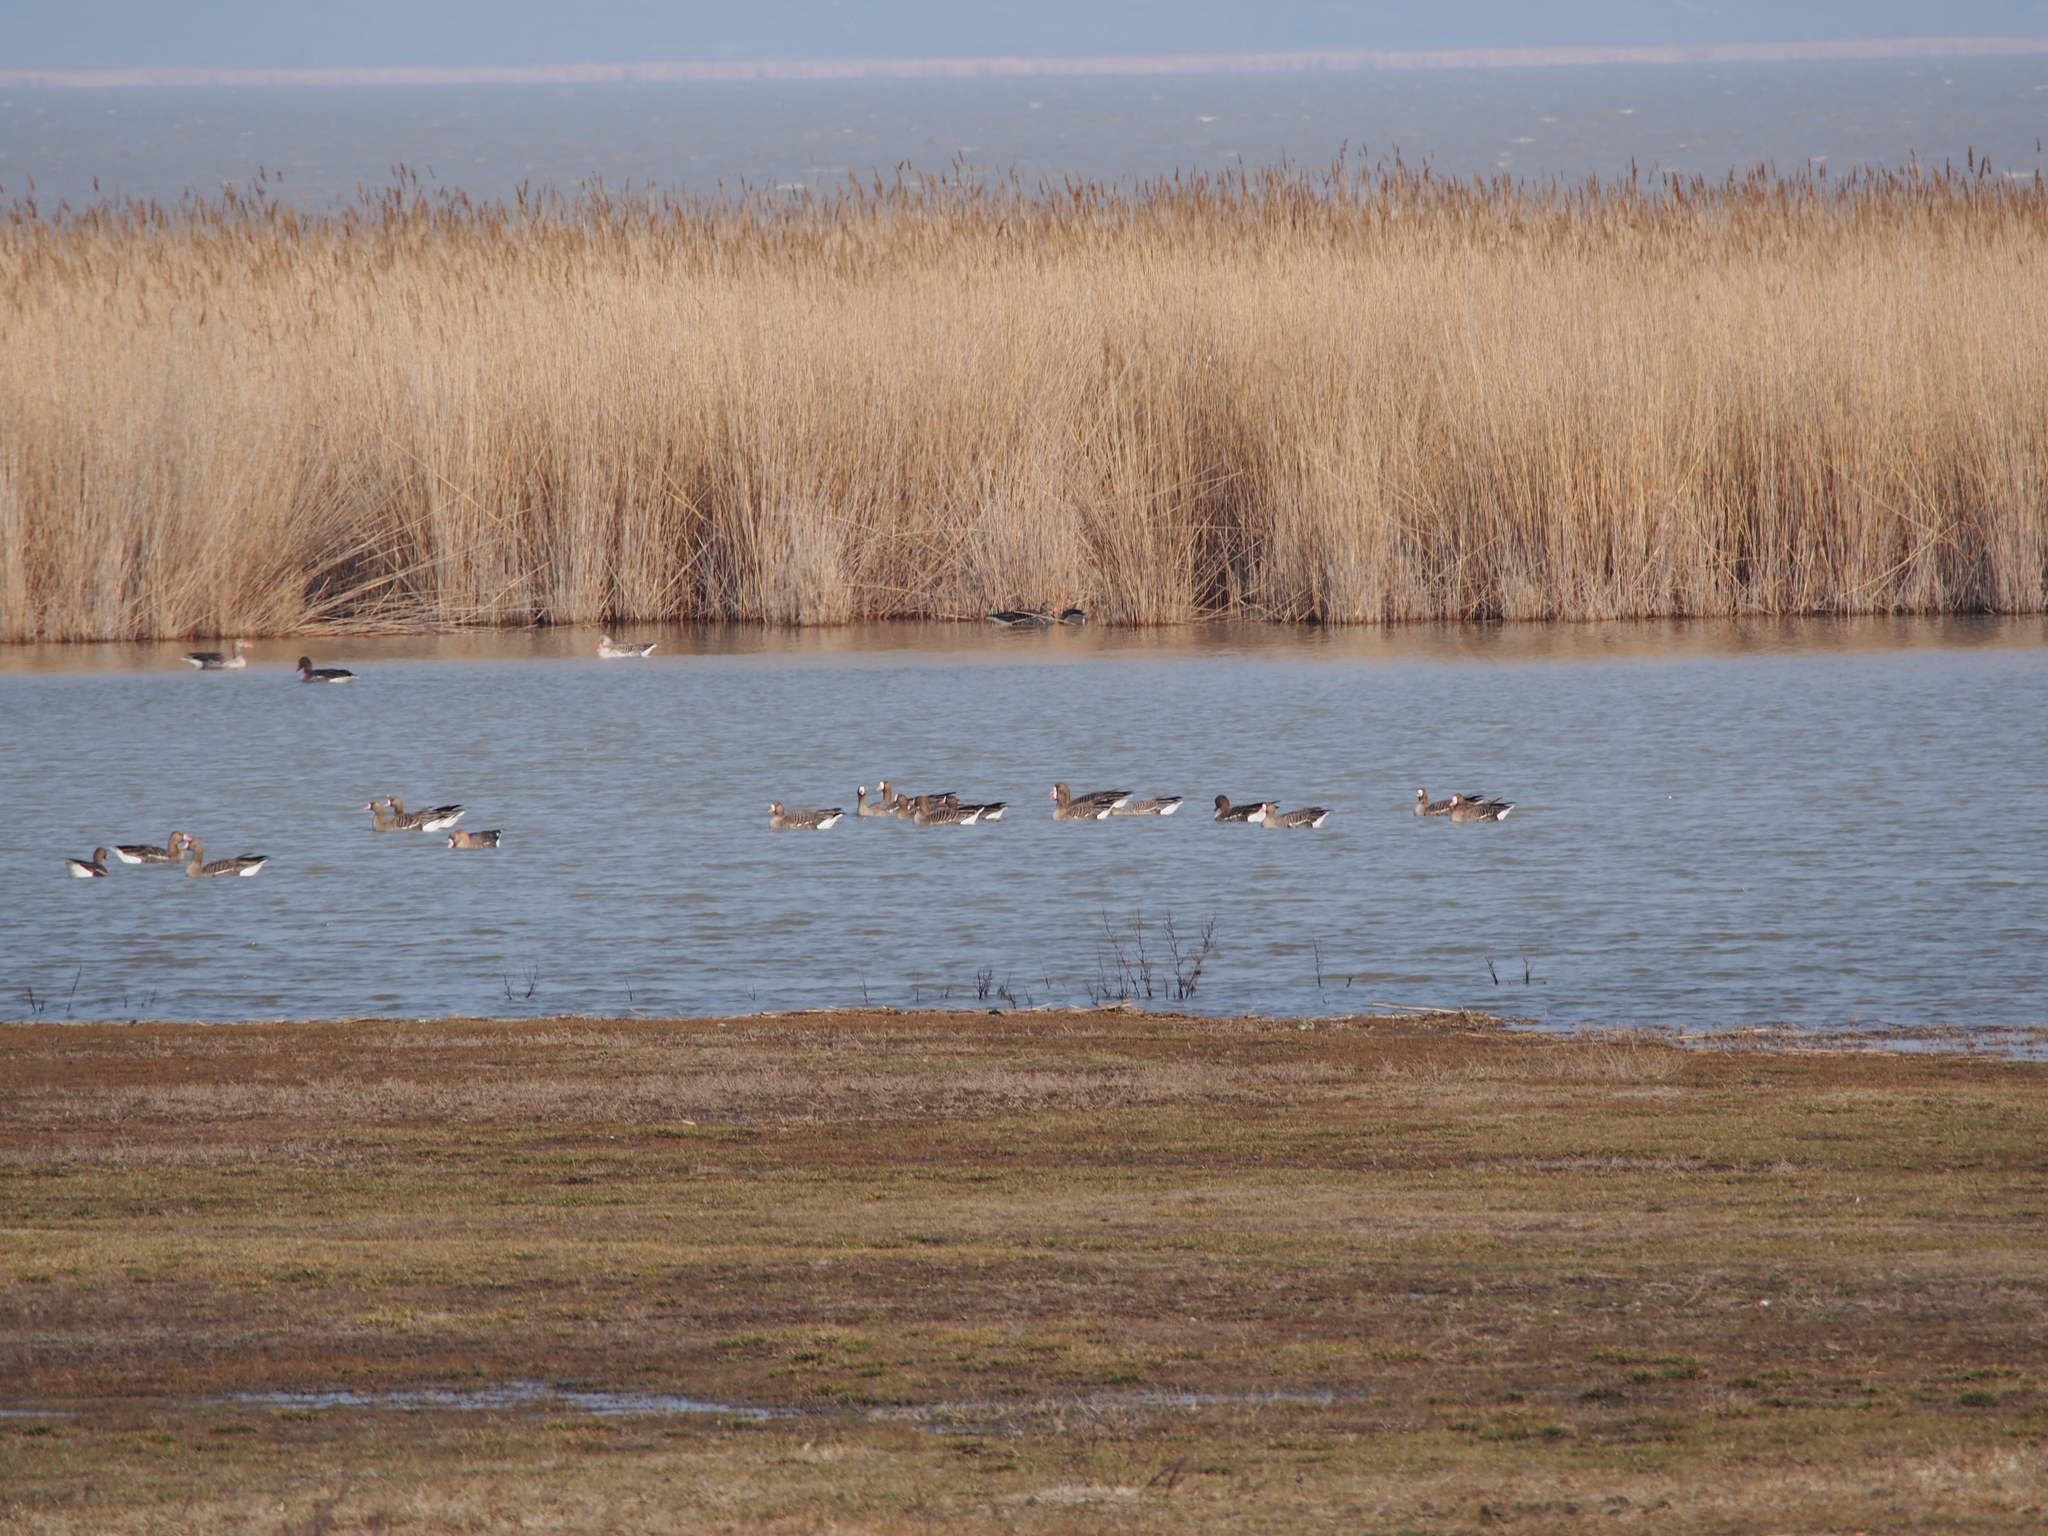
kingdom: Animalia
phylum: Chordata
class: Aves
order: Anseriformes
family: Anatidae
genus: Anser
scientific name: Anser albifrons
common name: Greater white-fronted goose
